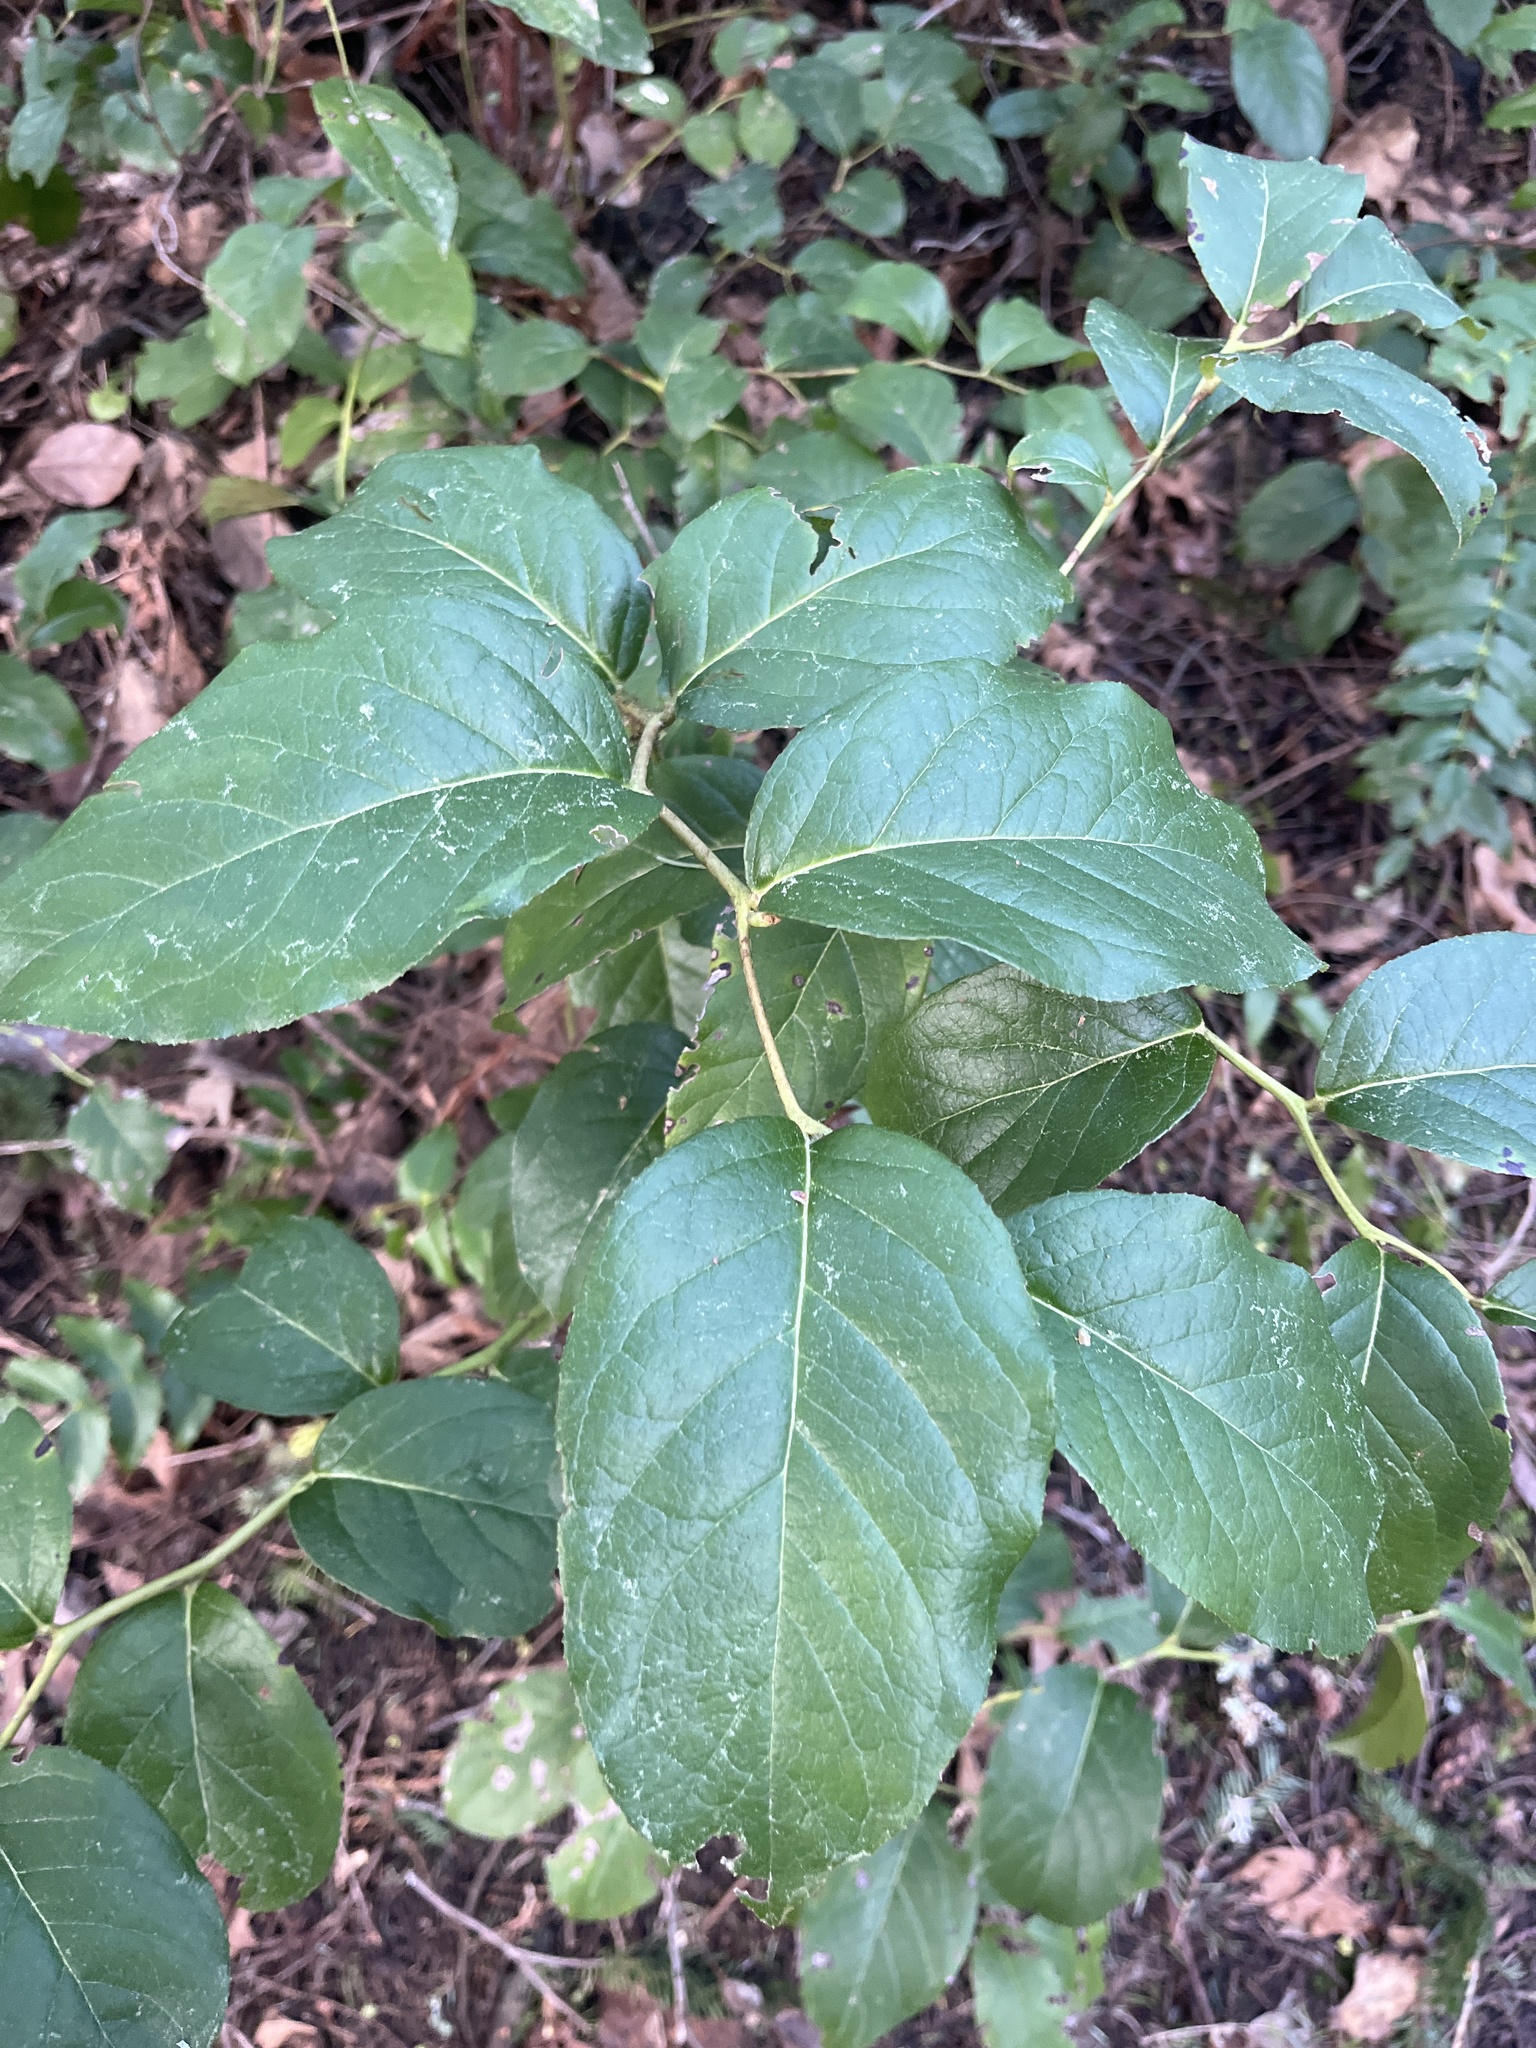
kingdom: Plantae
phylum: Tracheophyta
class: Magnoliopsida
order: Ericales
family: Ericaceae
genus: Gaultheria
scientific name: Gaultheria shallon
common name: Shallon
